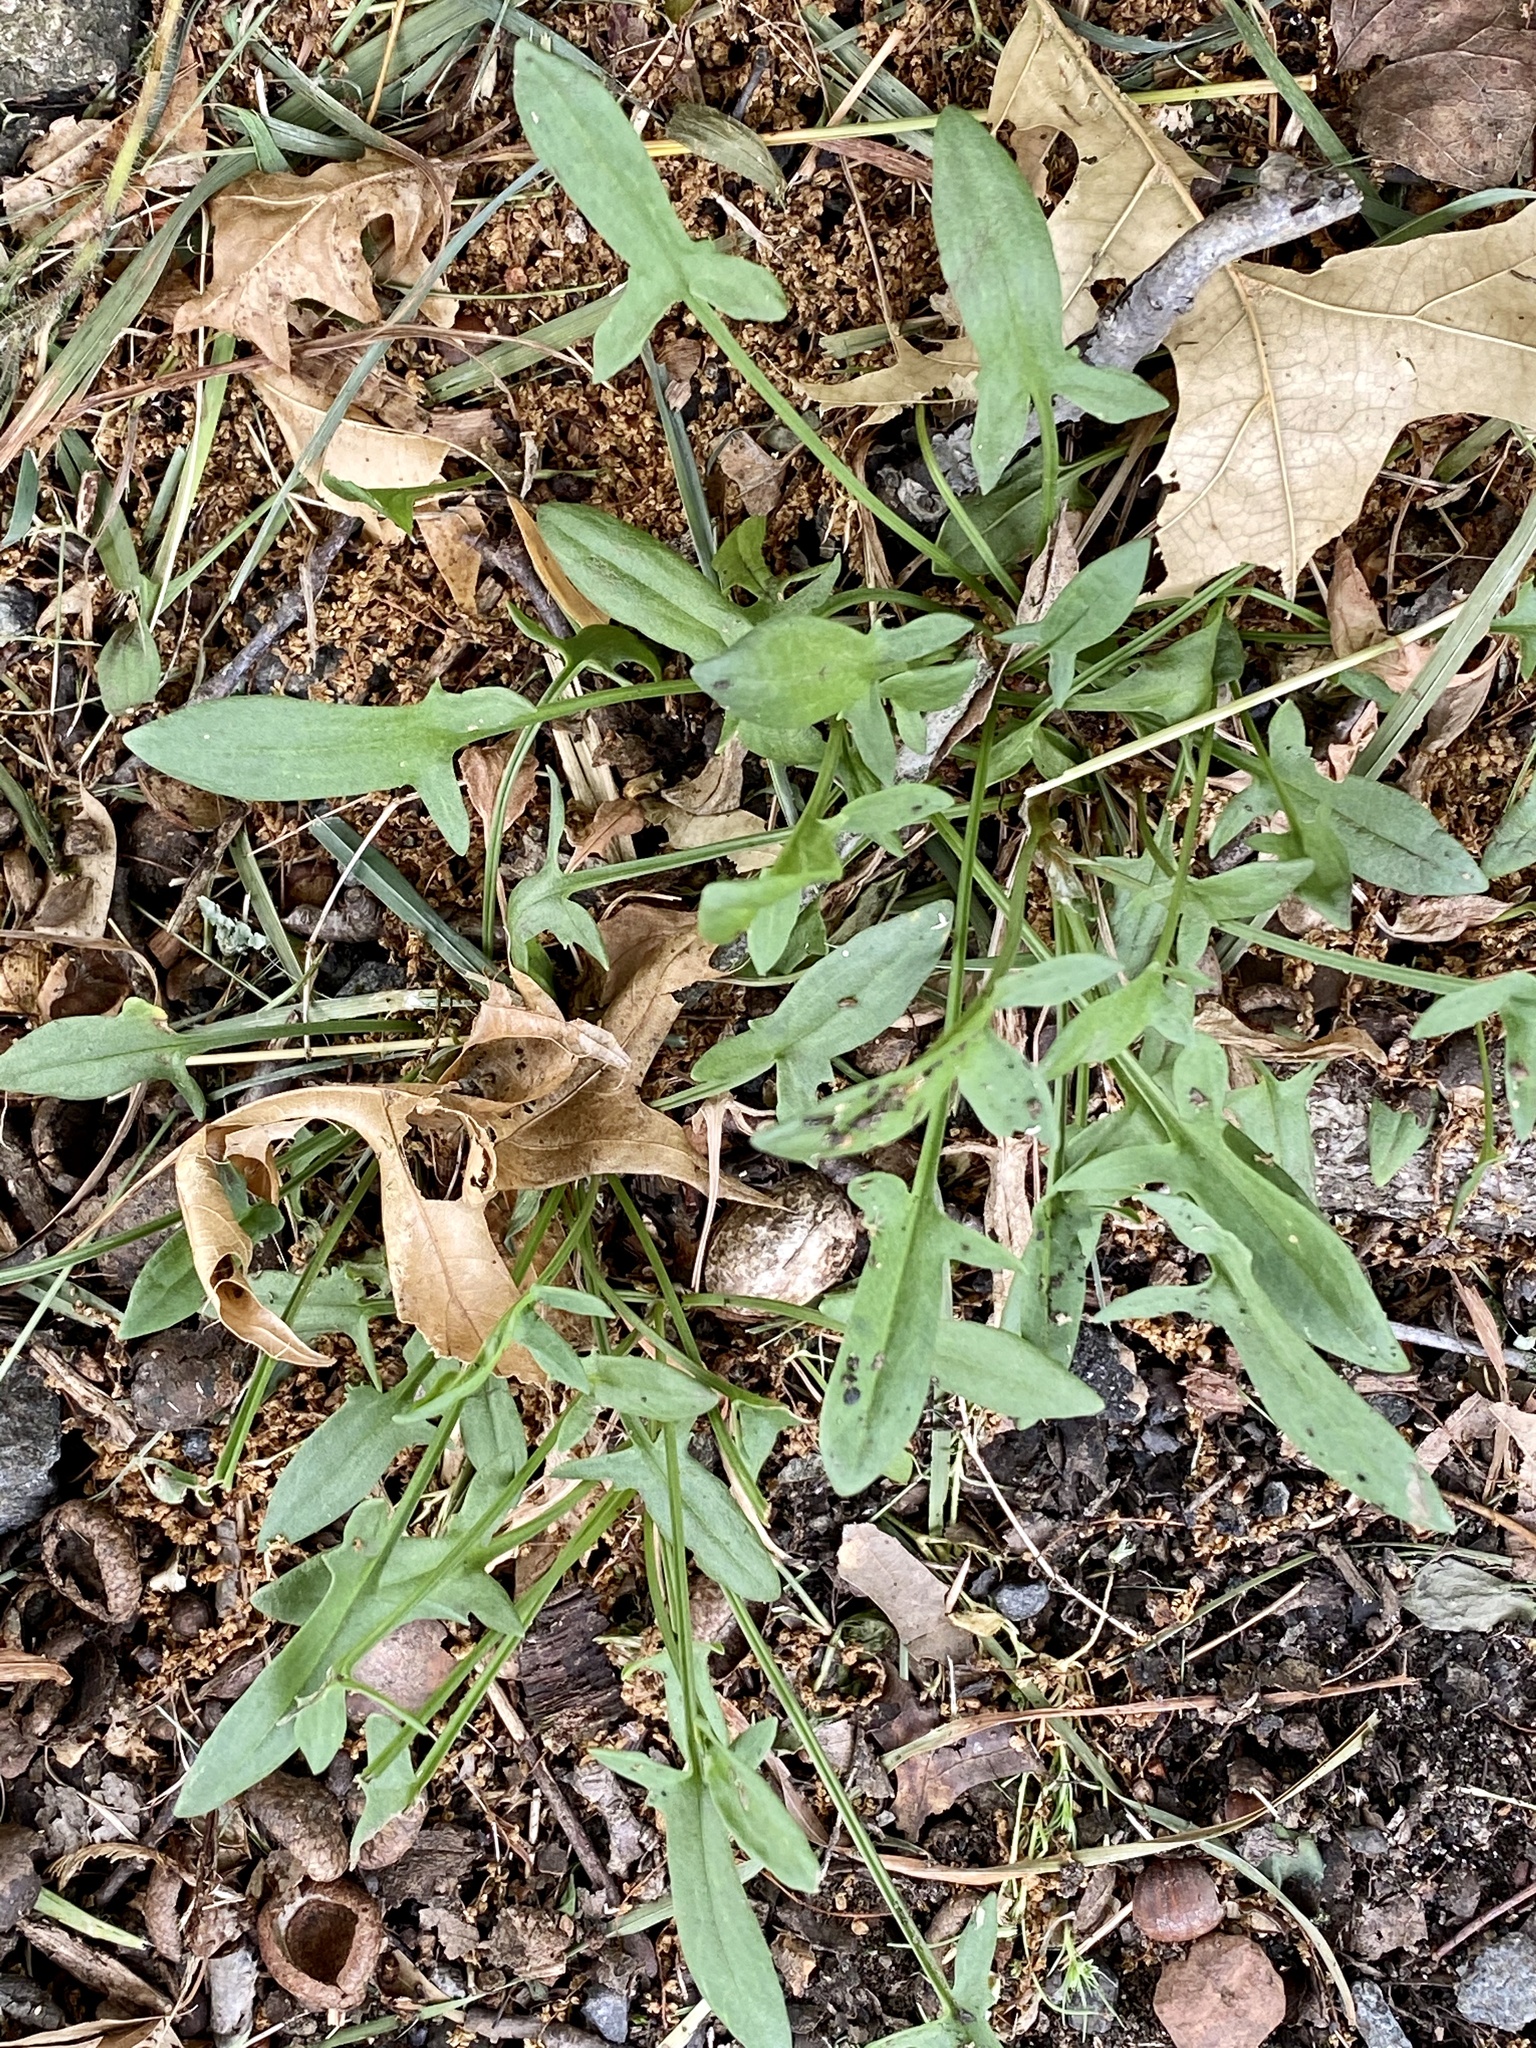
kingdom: Plantae
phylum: Tracheophyta
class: Magnoliopsida
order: Caryophyllales
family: Polygonaceae
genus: Rumex
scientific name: Rumex acetosella
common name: Common sheep sorrel
